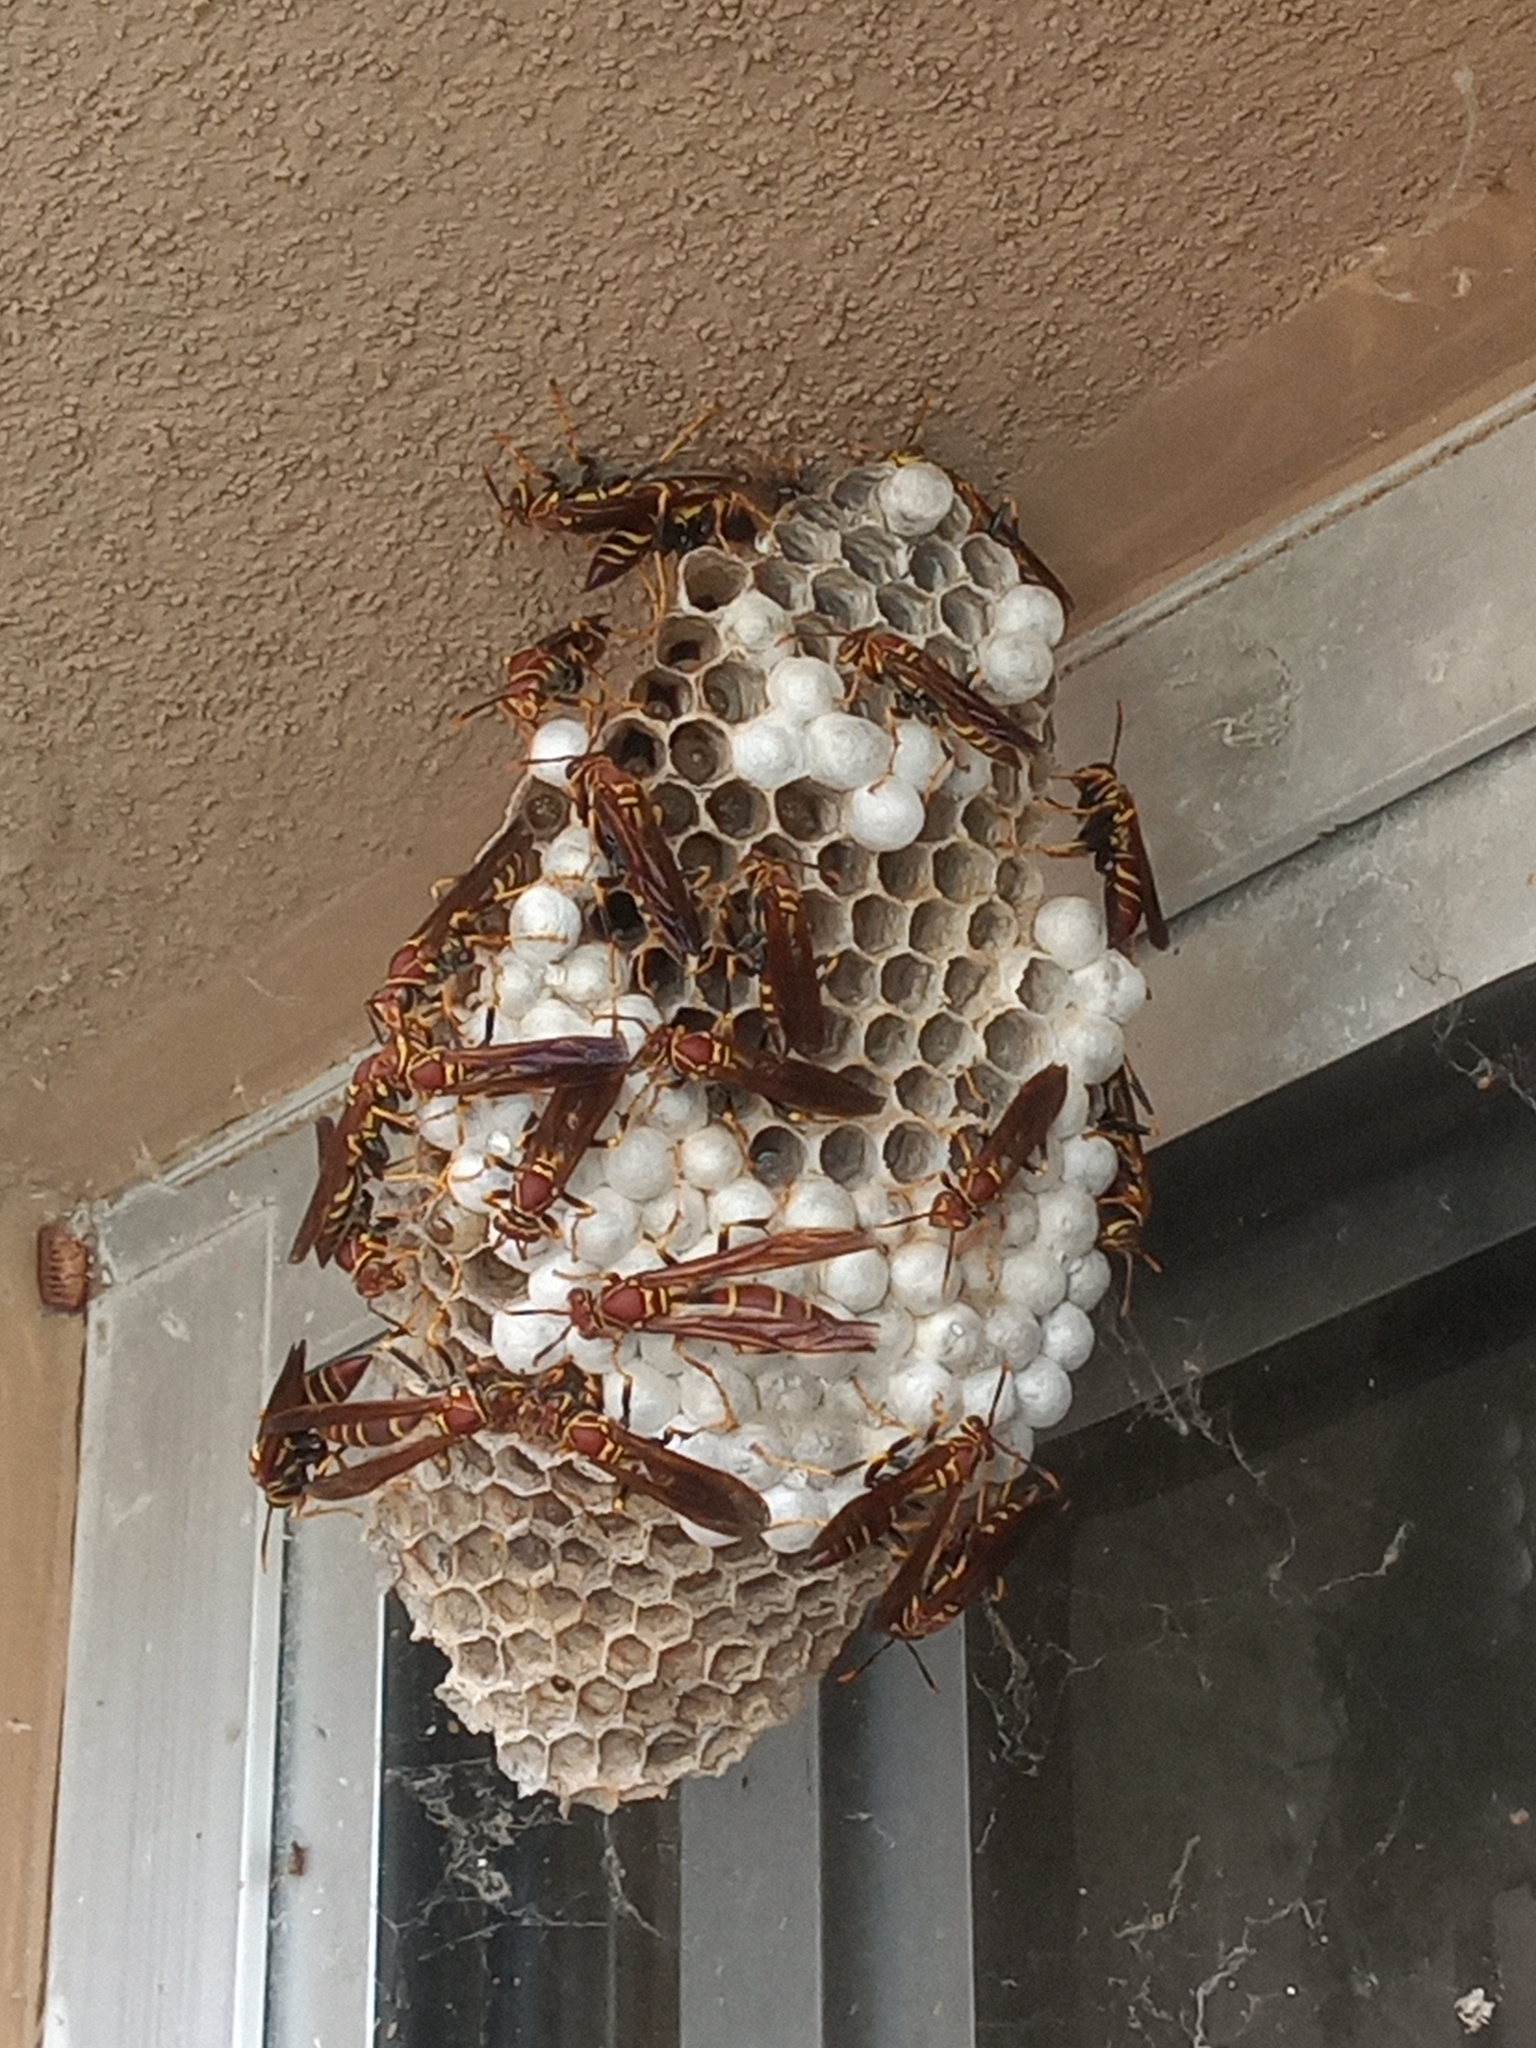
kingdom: Animalia
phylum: Arthropoda
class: Insecta
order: Hymenoptera
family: Eumenidae
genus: Polistes
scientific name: Polistes instabilis
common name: Unstable paper wasp
